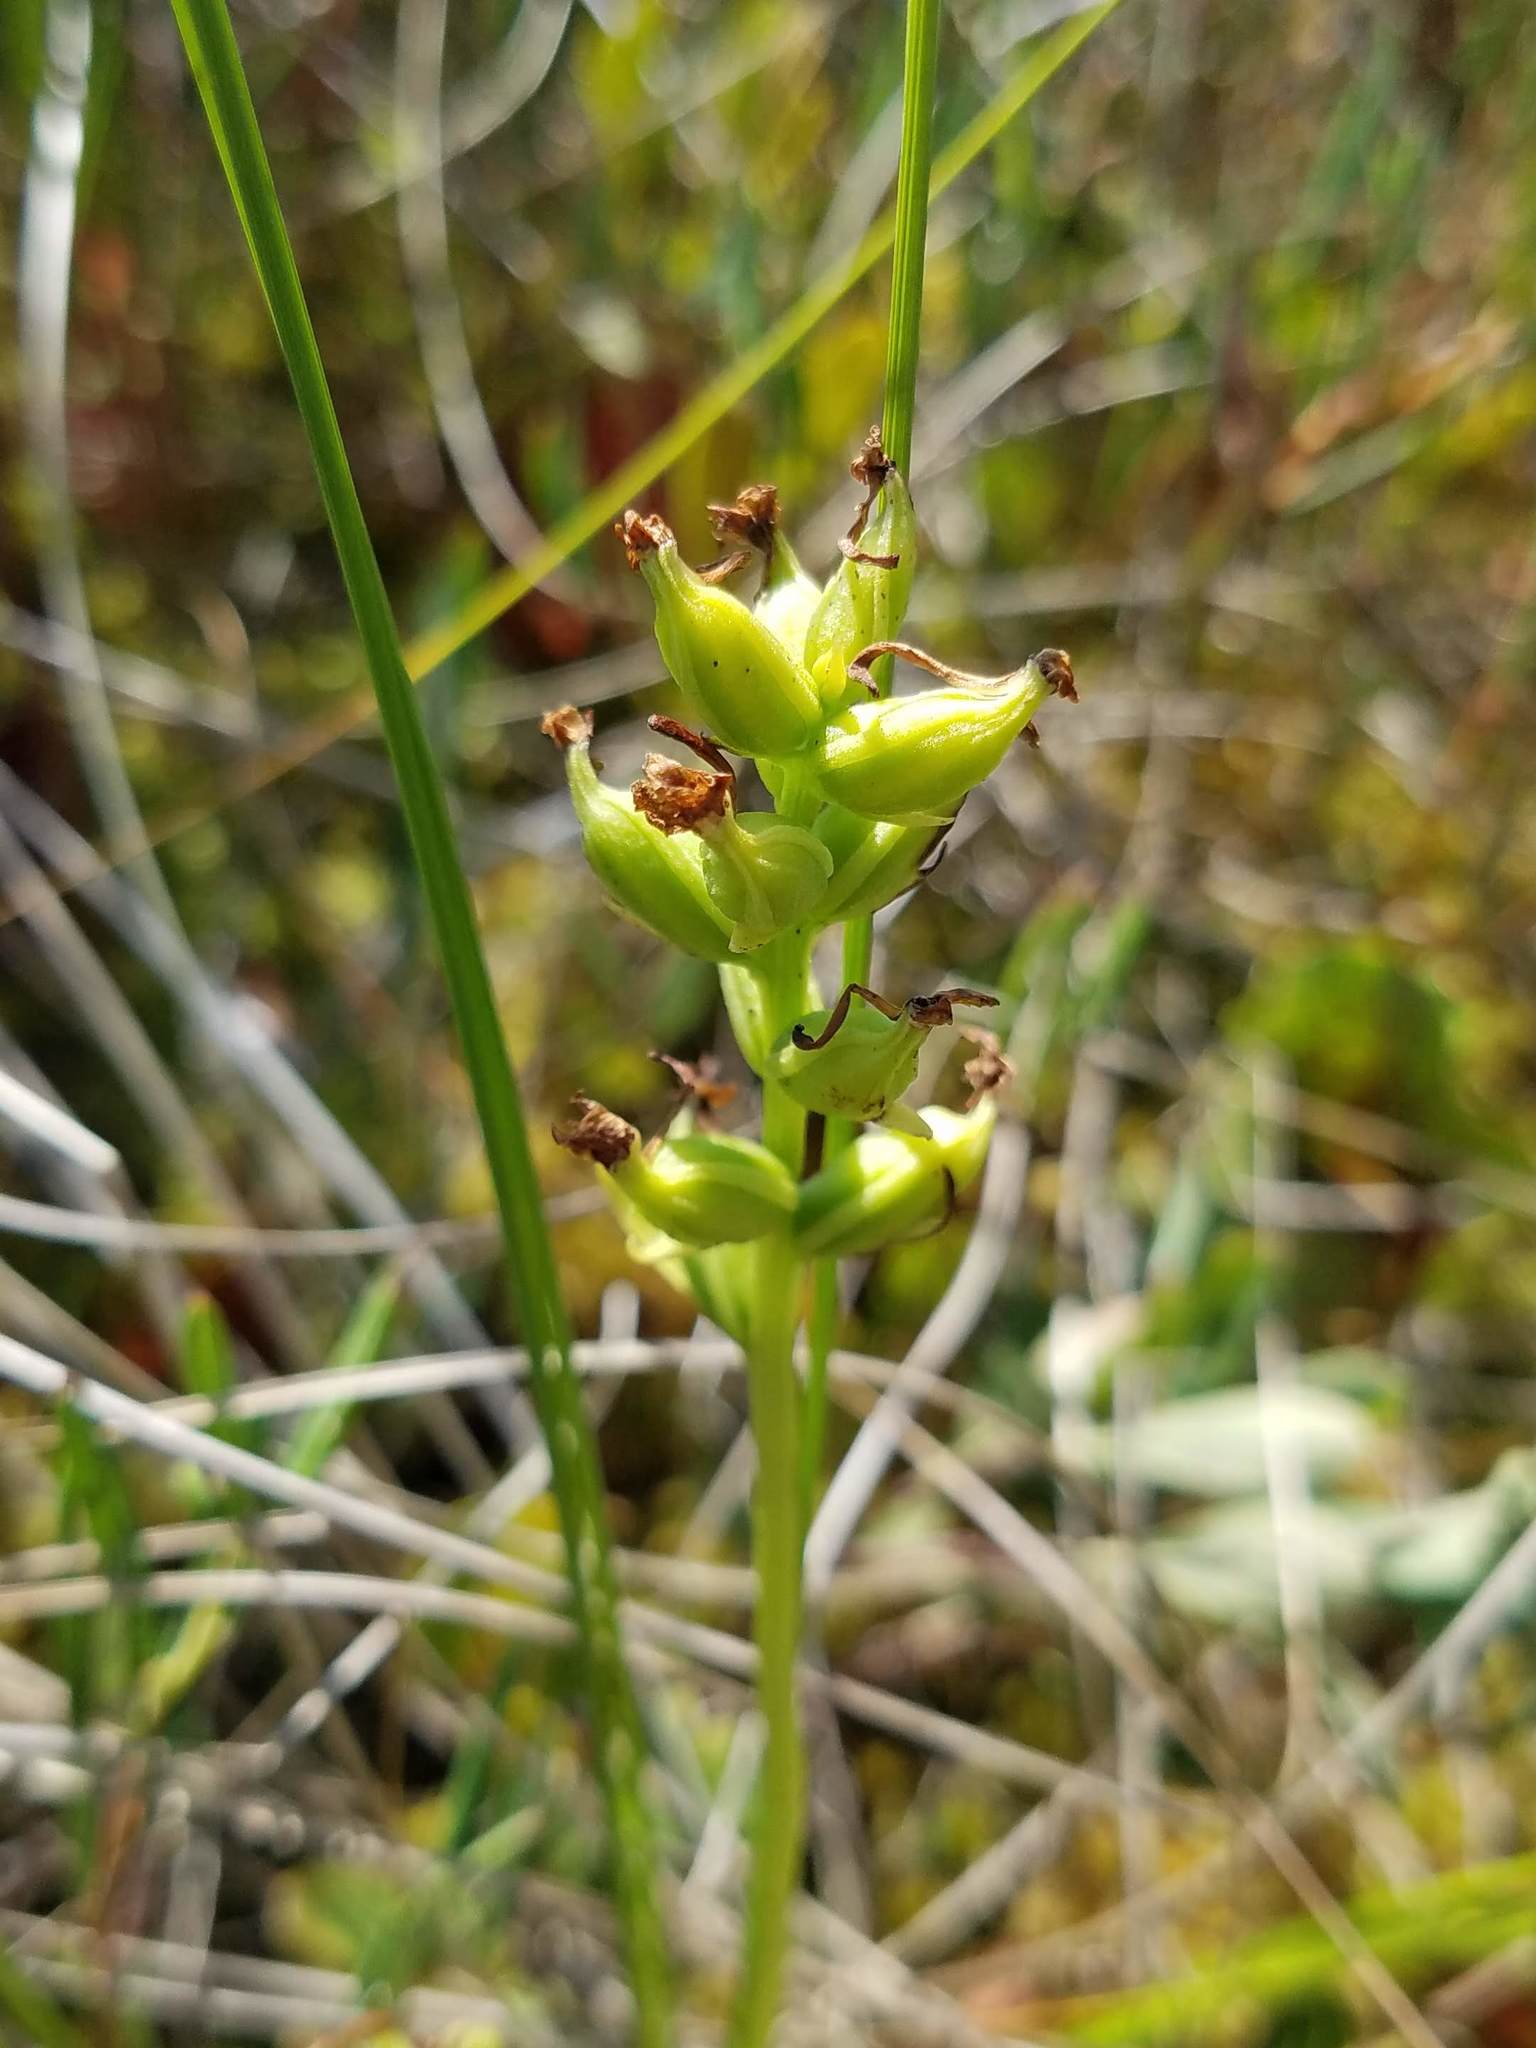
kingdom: Plantae
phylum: Tracheophyta
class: Liliopsida
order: Asparagales
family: Orchidaceae
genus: Platanthera
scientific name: Platanthera clavellata
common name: Club-spur orchid
